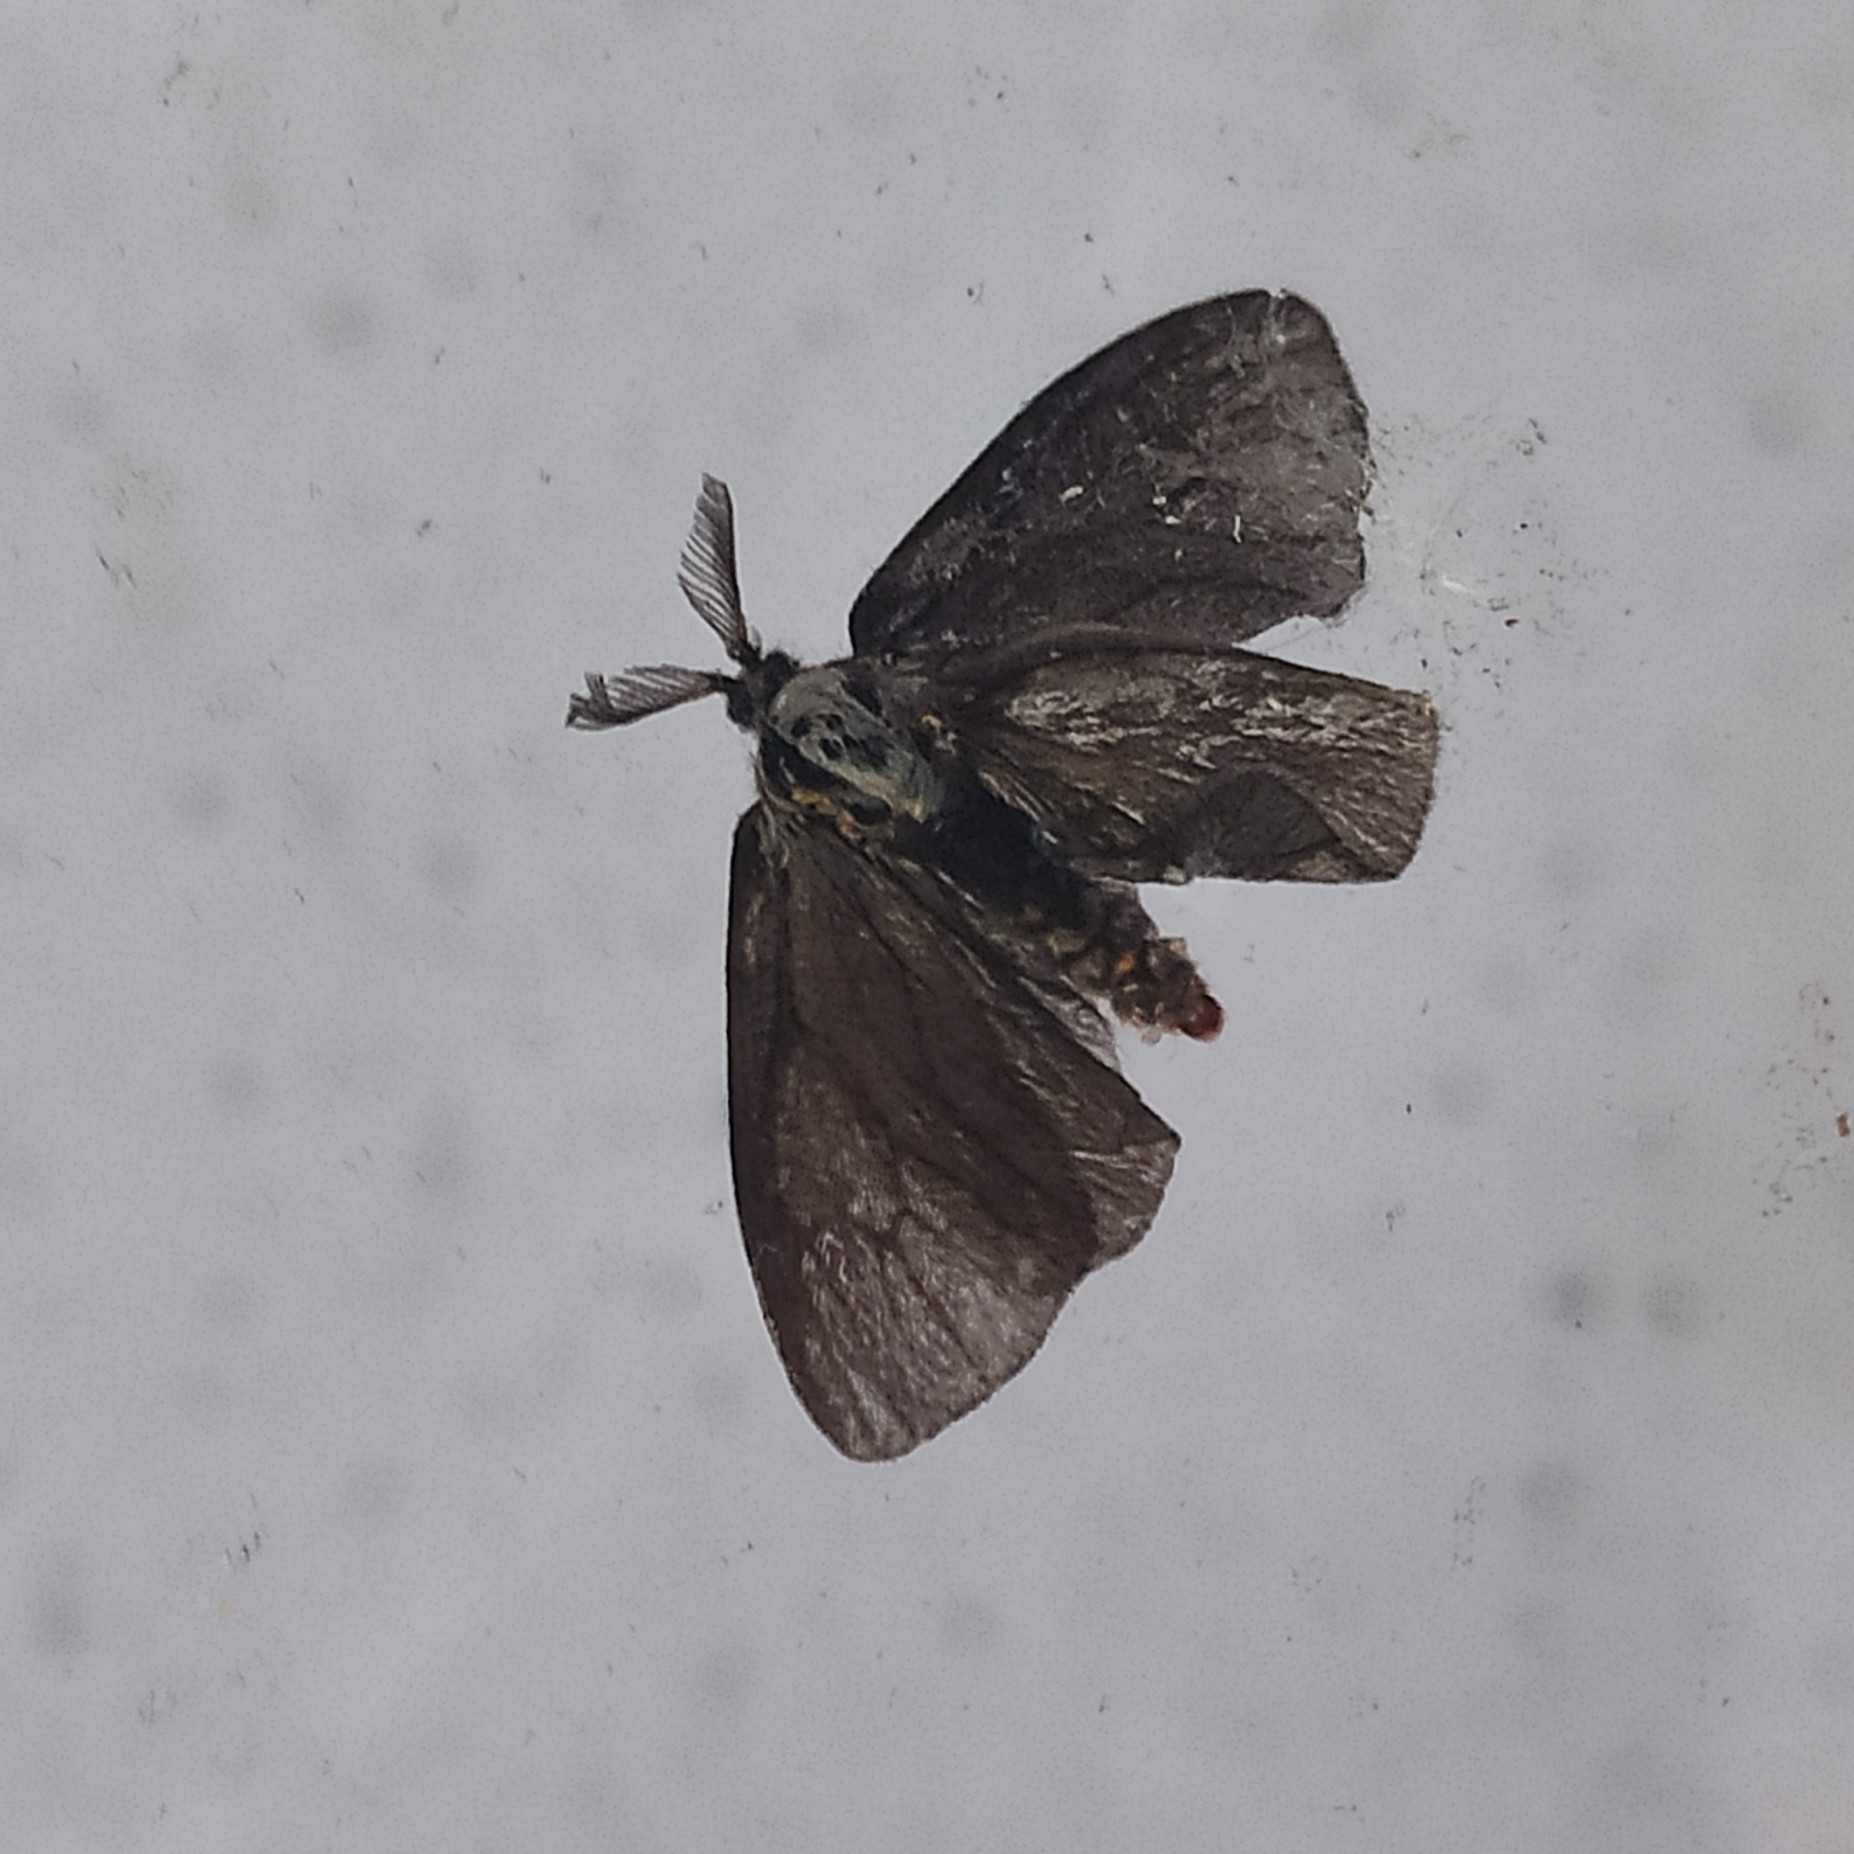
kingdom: Animalia
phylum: Arthropoda
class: Insecta
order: Lepidoptera
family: Psychidae
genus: Canephora
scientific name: Canephora hirsuta
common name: Hairy sweep
